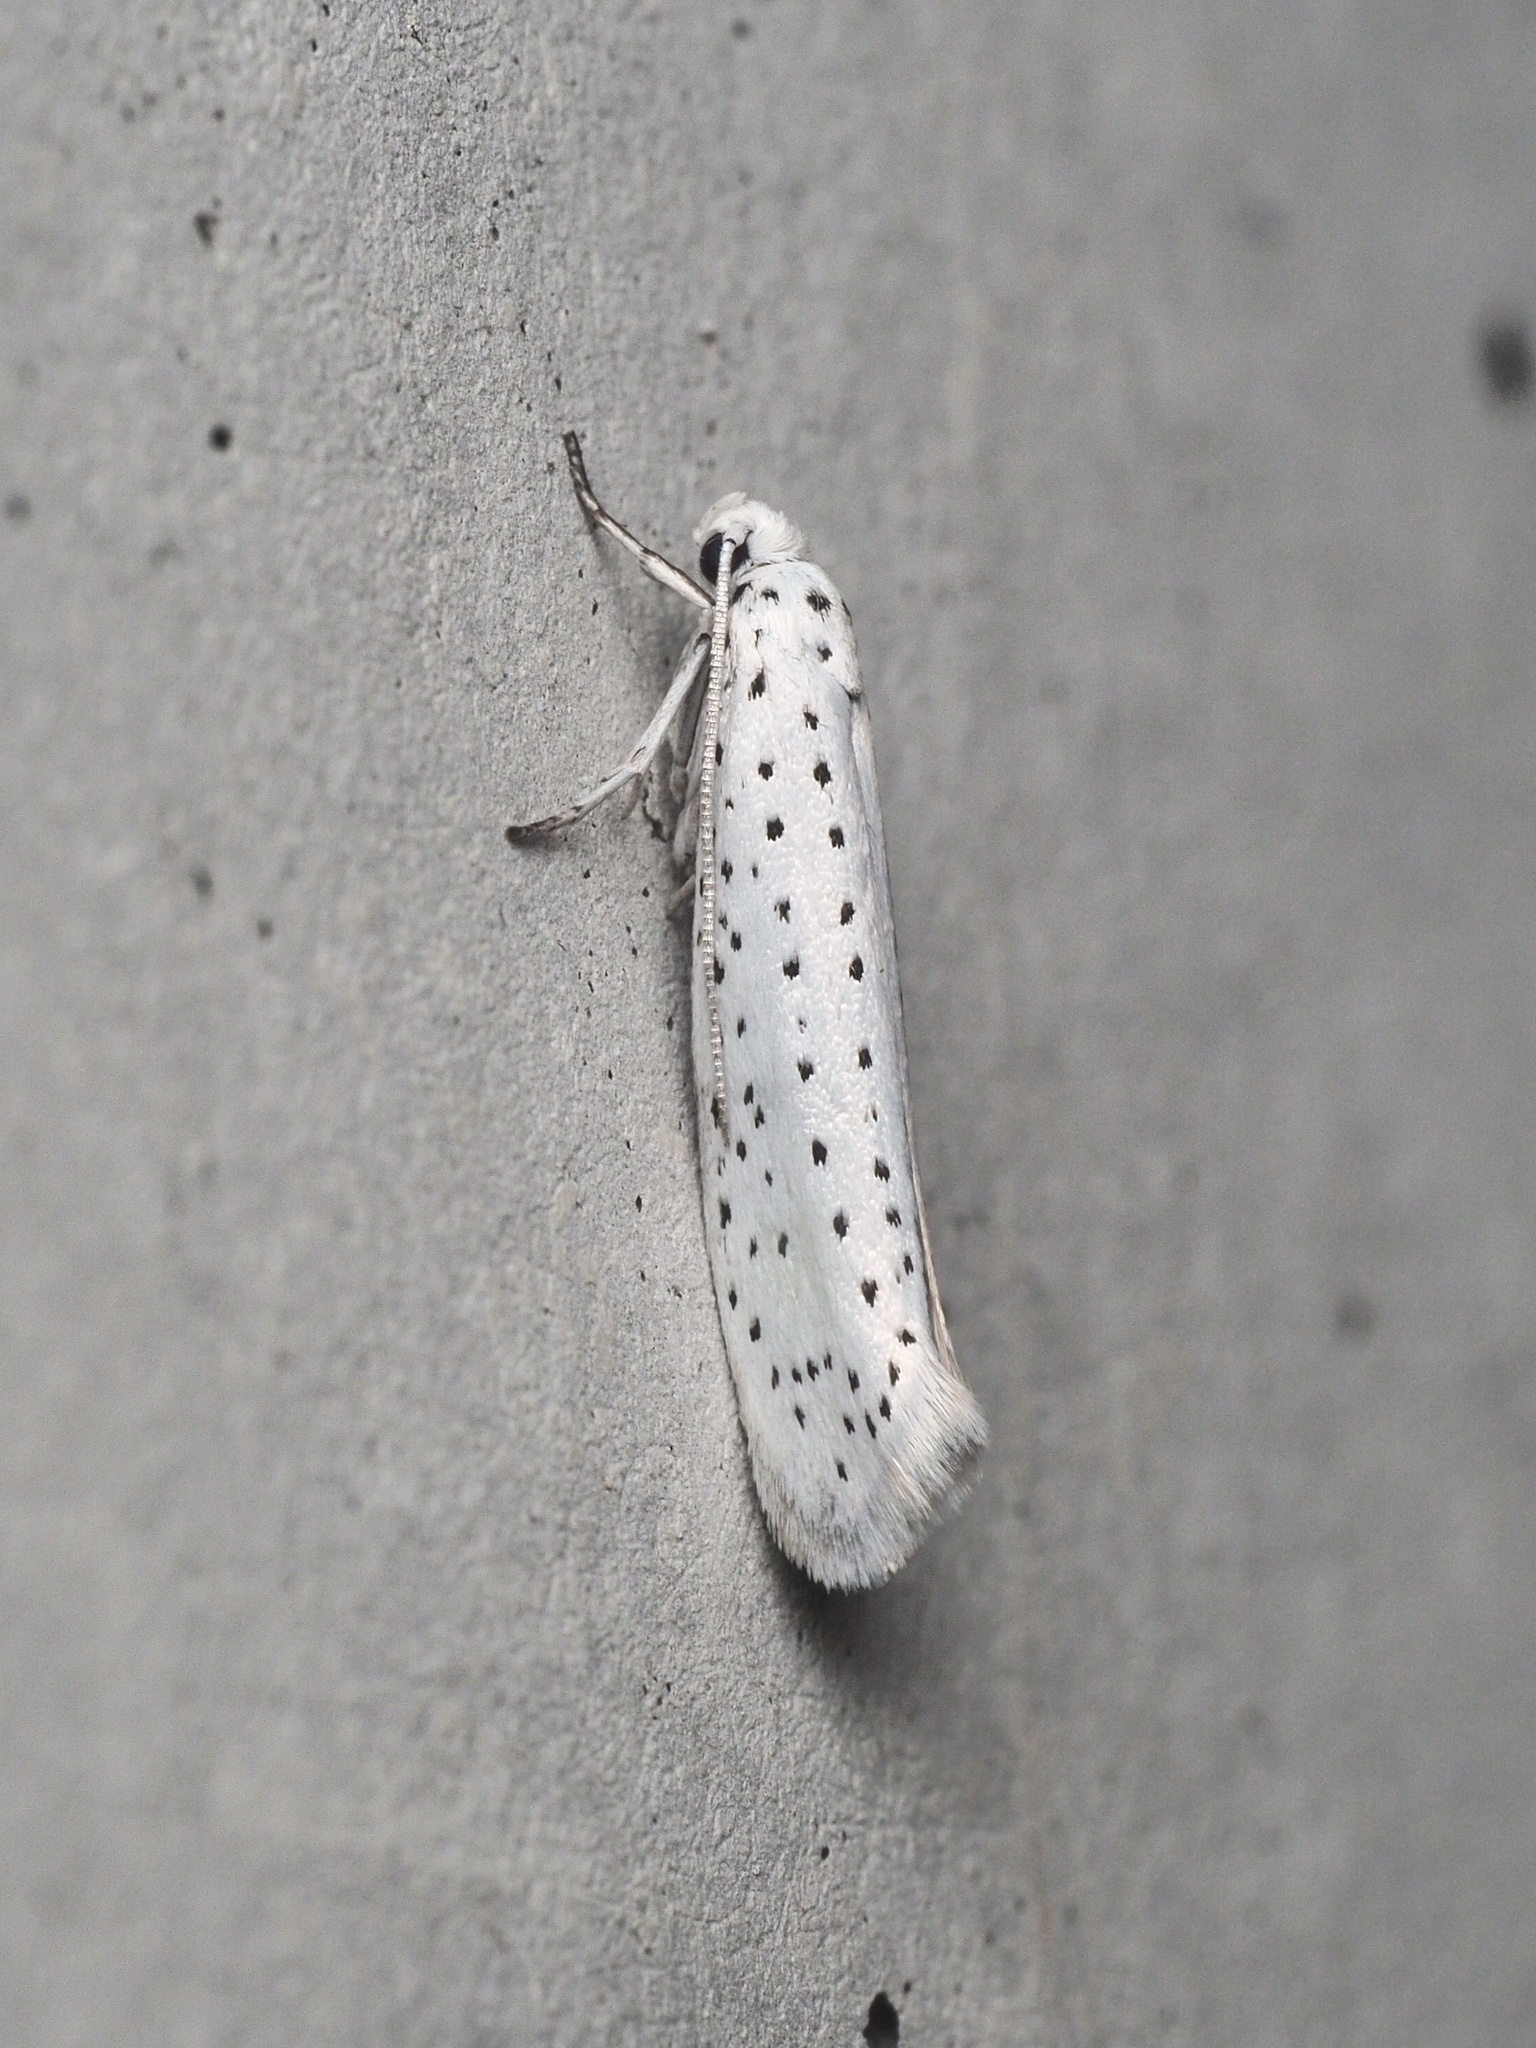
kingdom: Animalia
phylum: Arthropoda
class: Insecta
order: Lepidoptera
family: Yponomeutidae
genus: Yponomeuta
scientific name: Yponomeuta evonymella
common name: Bird-cherry ermine
